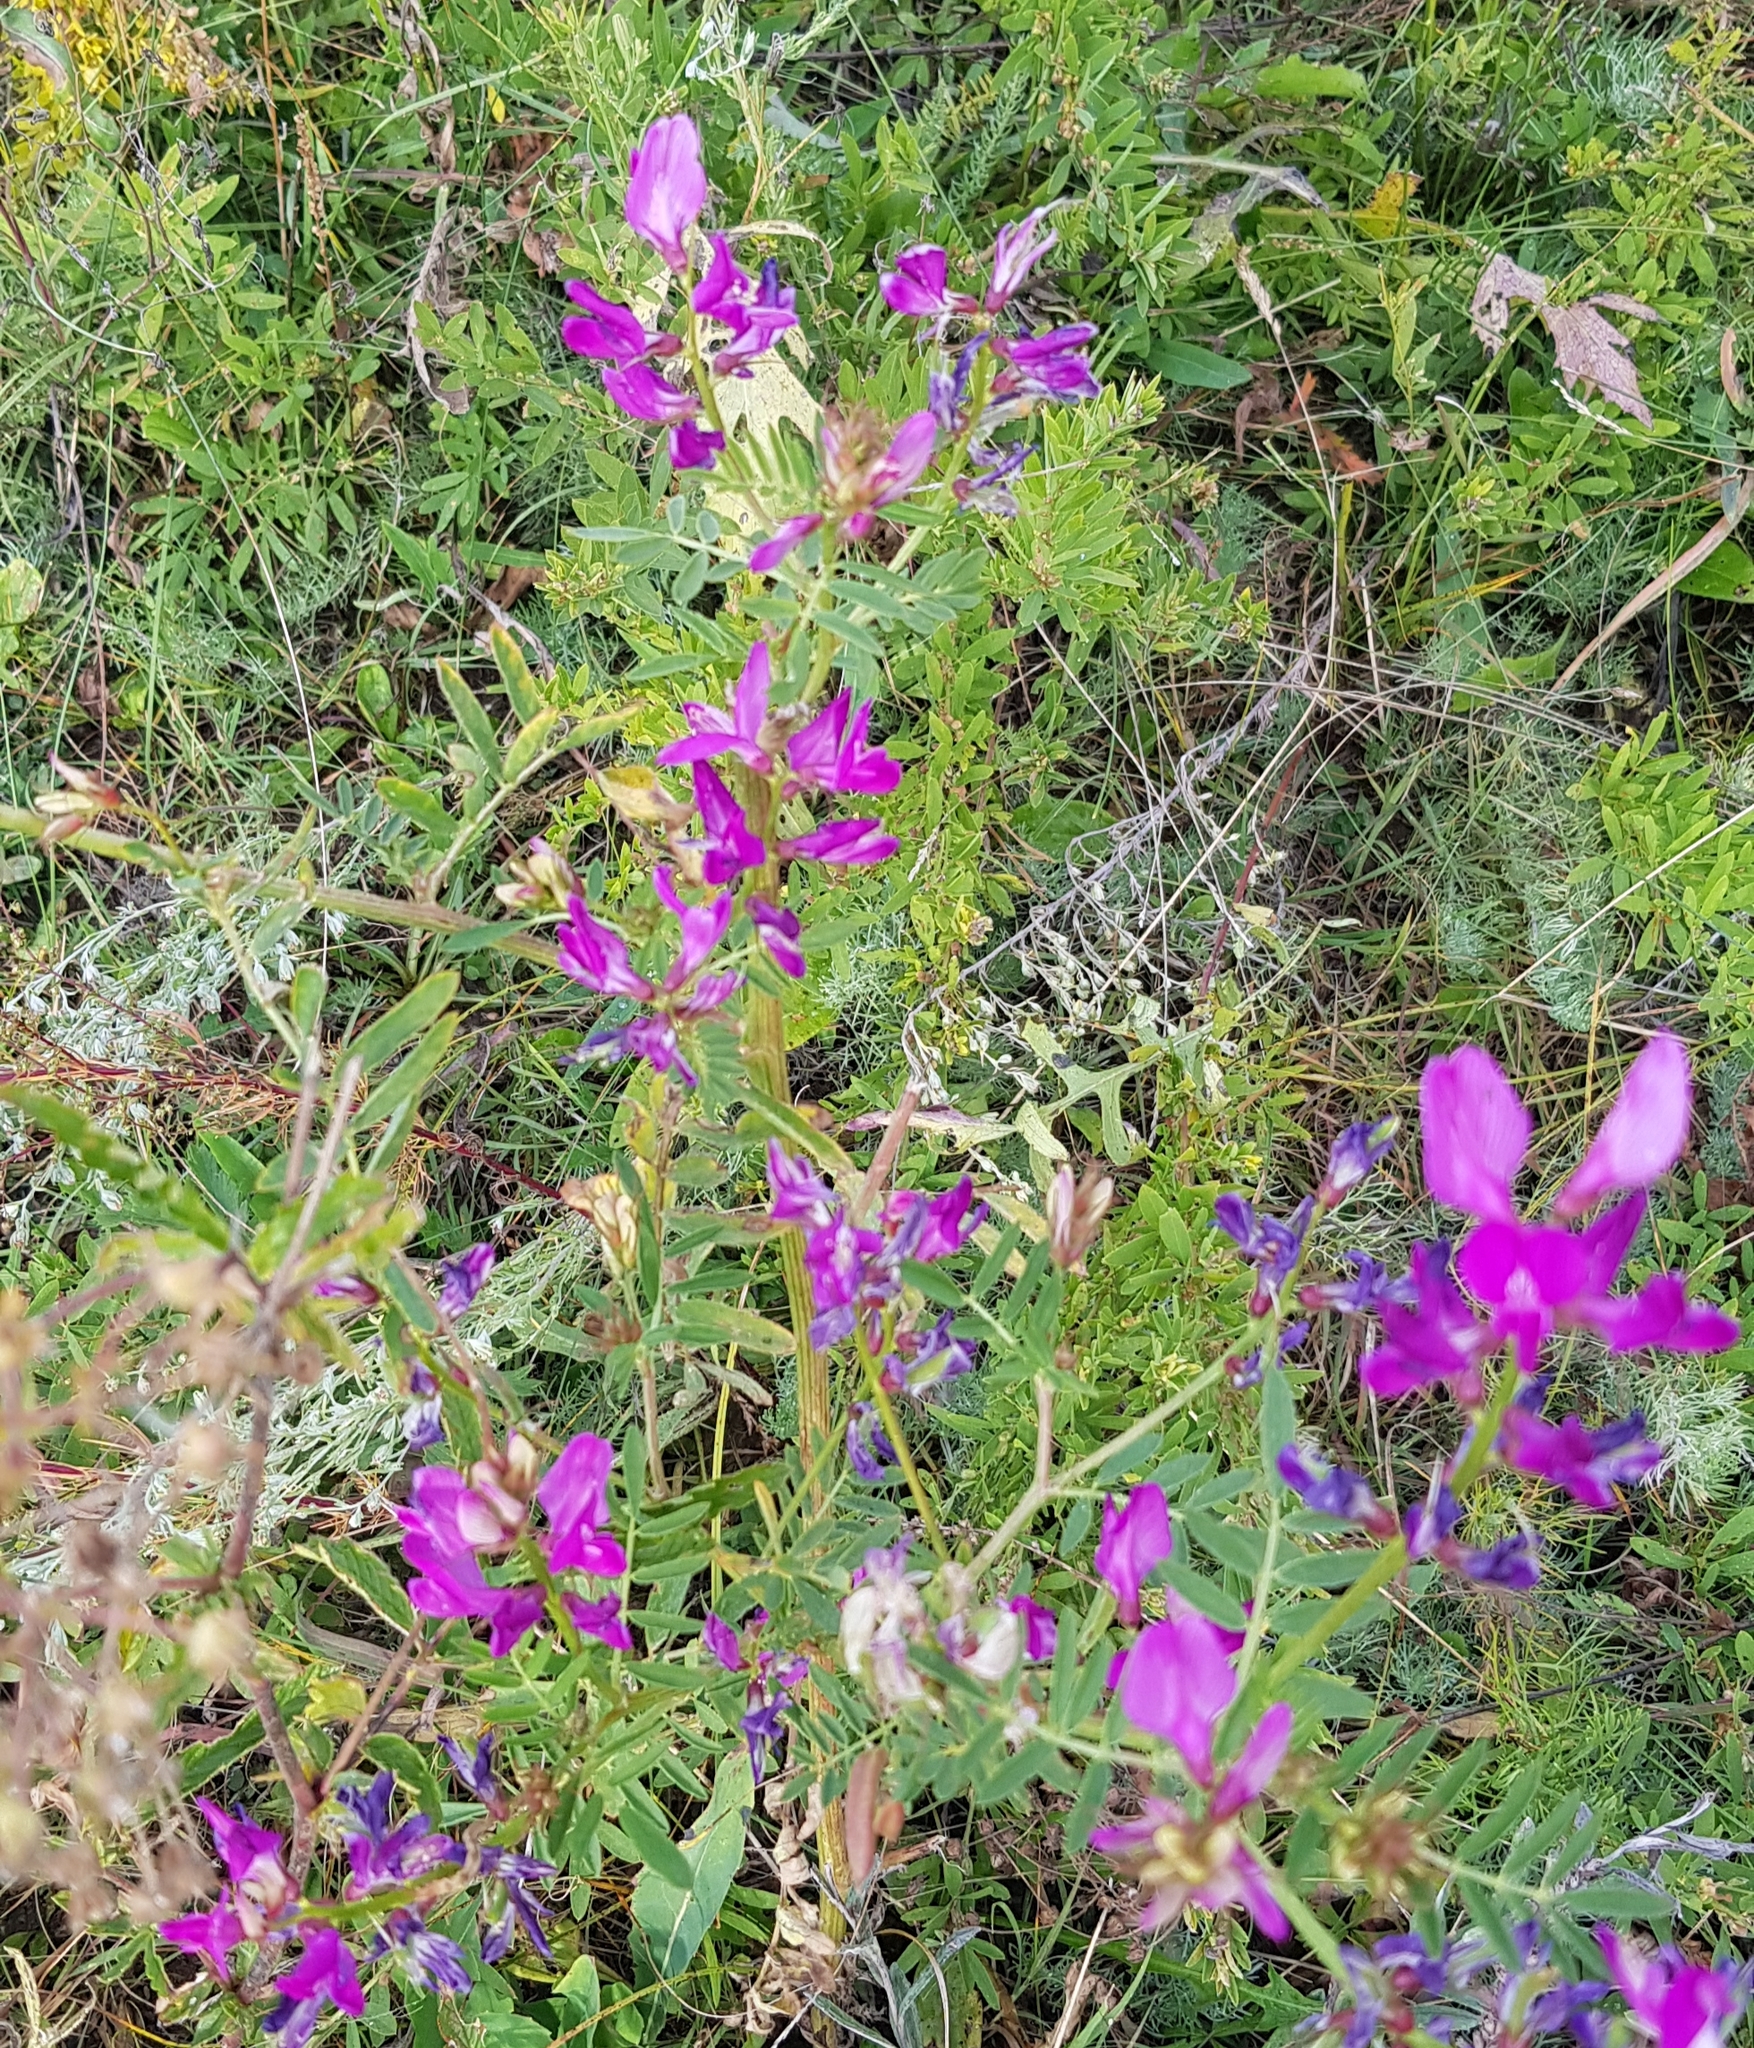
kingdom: Plantae
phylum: Tracheophyta
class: Magnoliopsida
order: Fabales
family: Fabaceae
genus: Astragalus
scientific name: Astragalus davuricus
